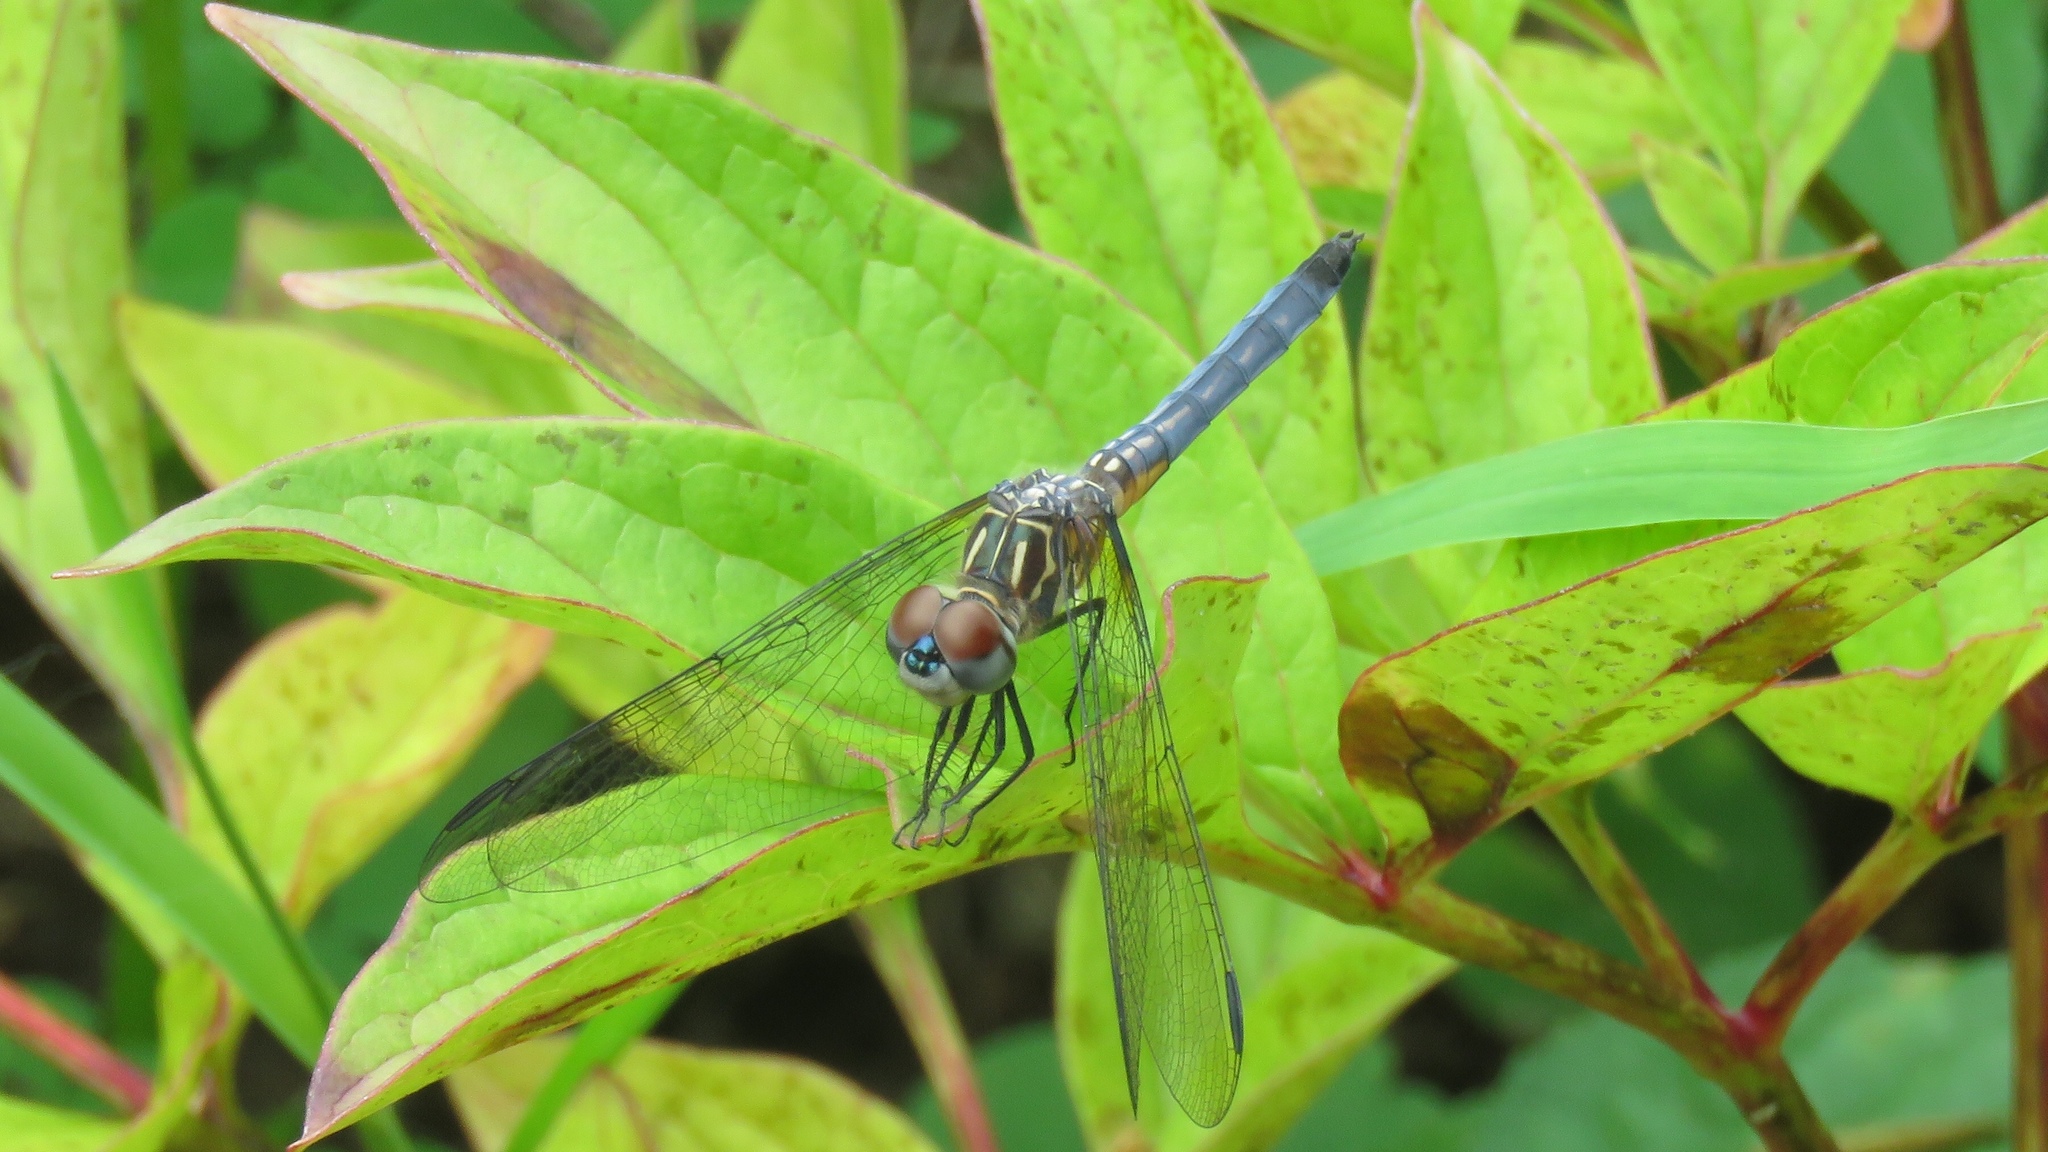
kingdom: Animalia
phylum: Arthropoda
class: Insecta
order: Odonata
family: Libellulidae
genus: Pachydiplax
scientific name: Pachydiplax longipennis
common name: Blue dasher
